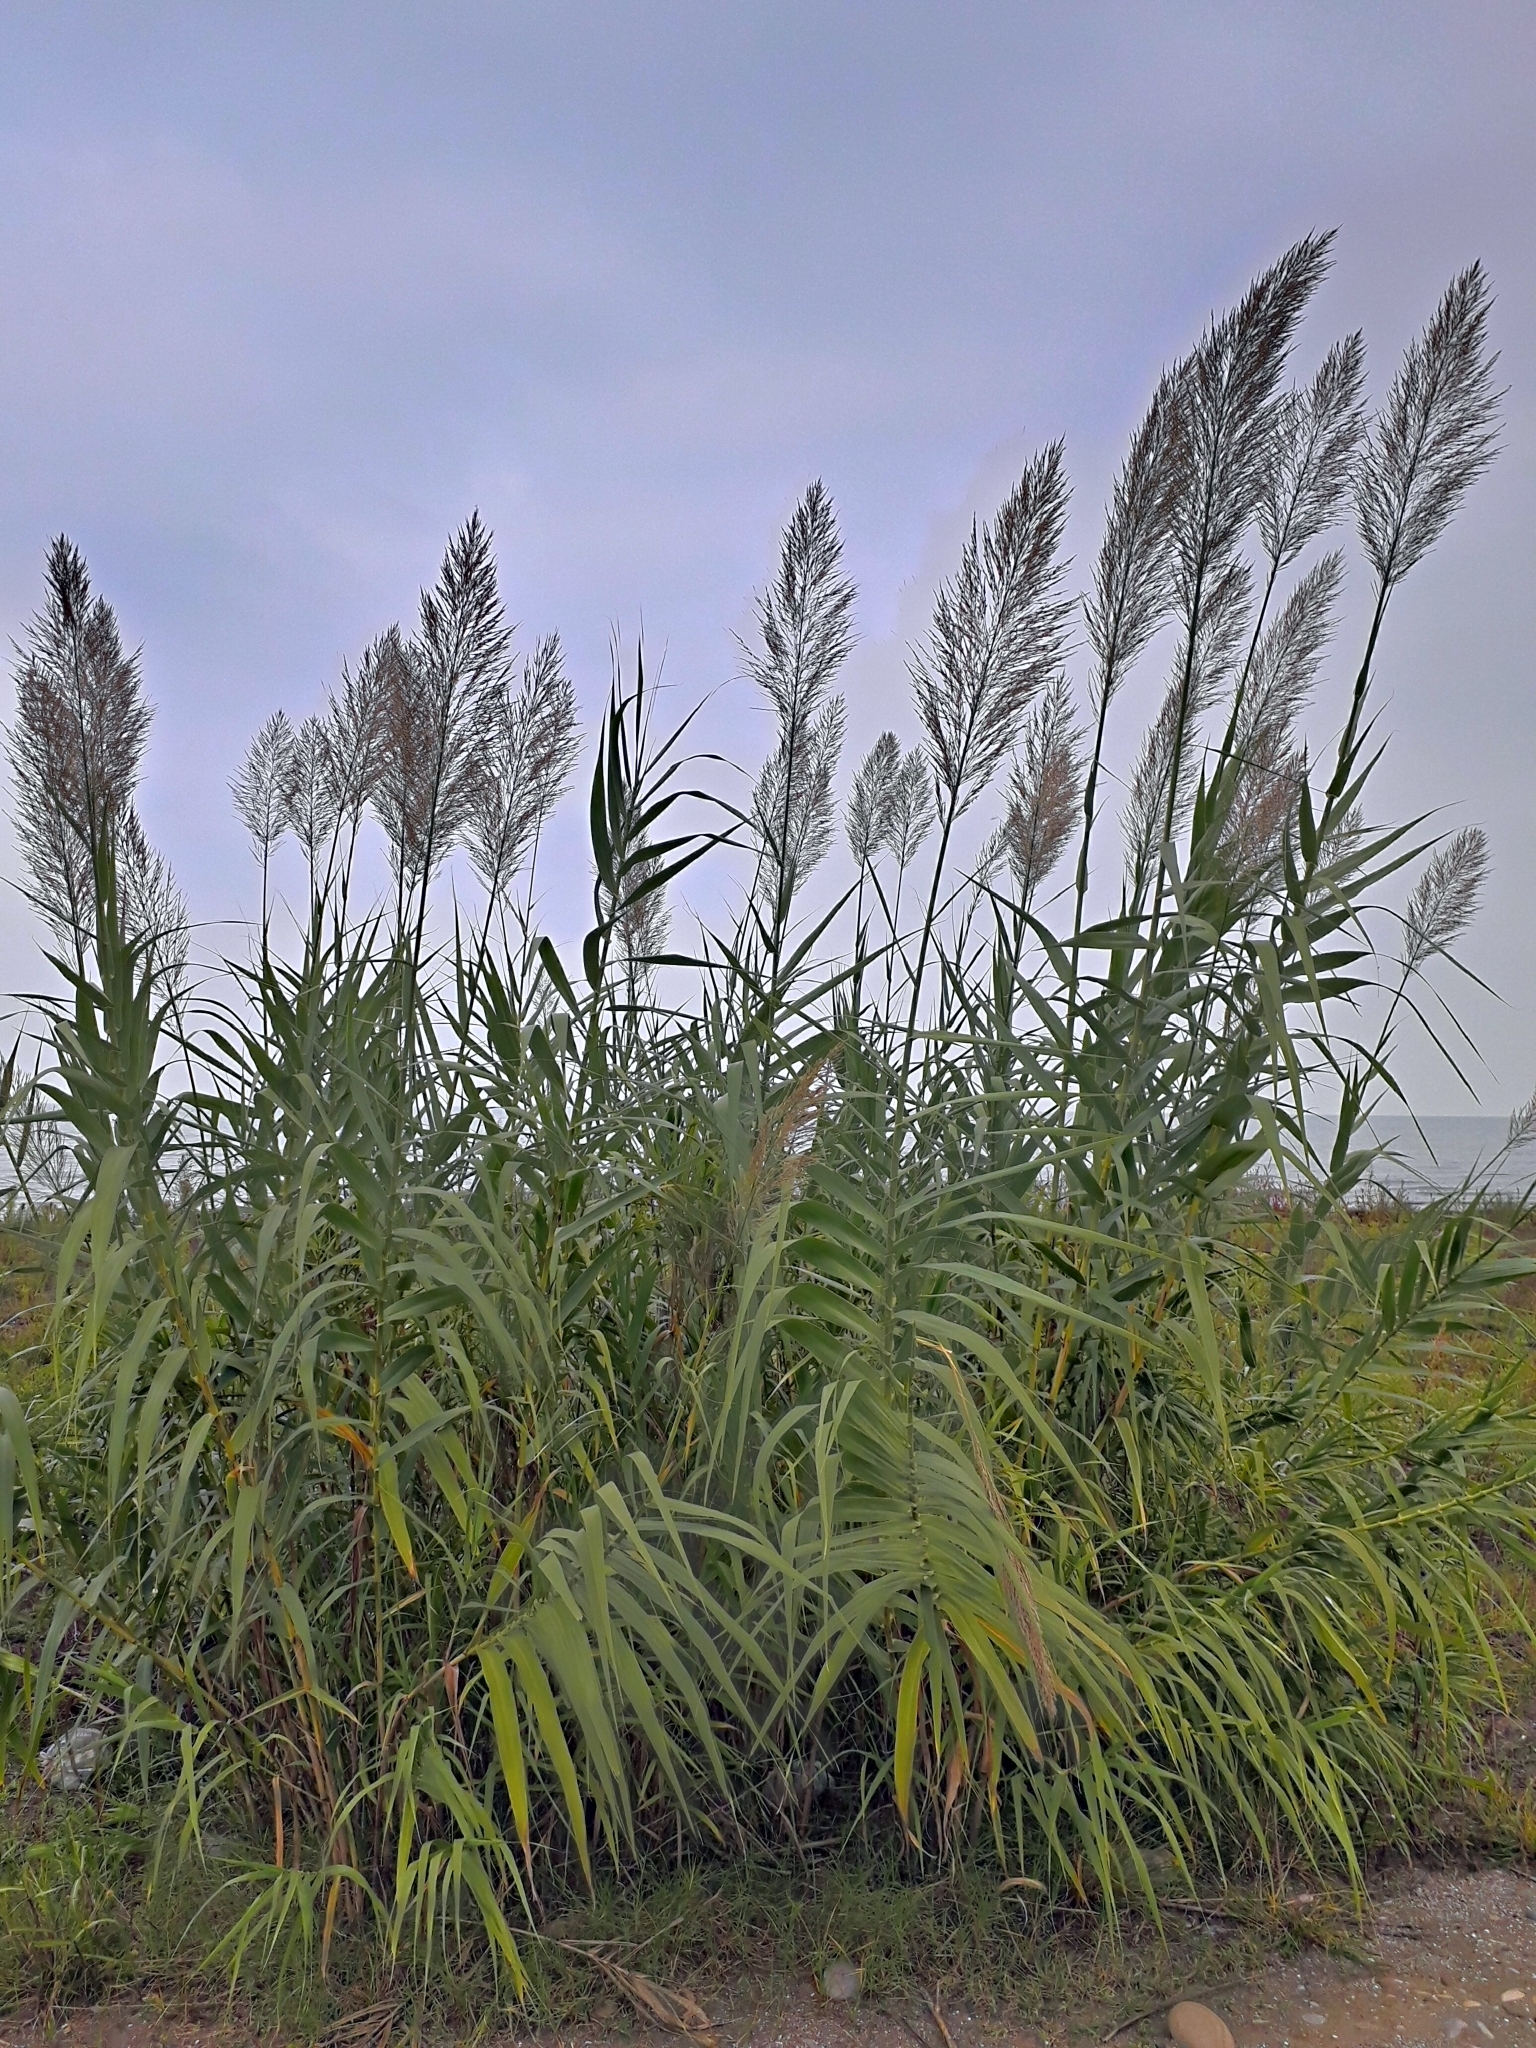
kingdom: Plantae
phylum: Tracheophyta
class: Liliopsida
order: Poales
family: Poaceae
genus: Phragmites
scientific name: Phragmites australis
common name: Common reed
